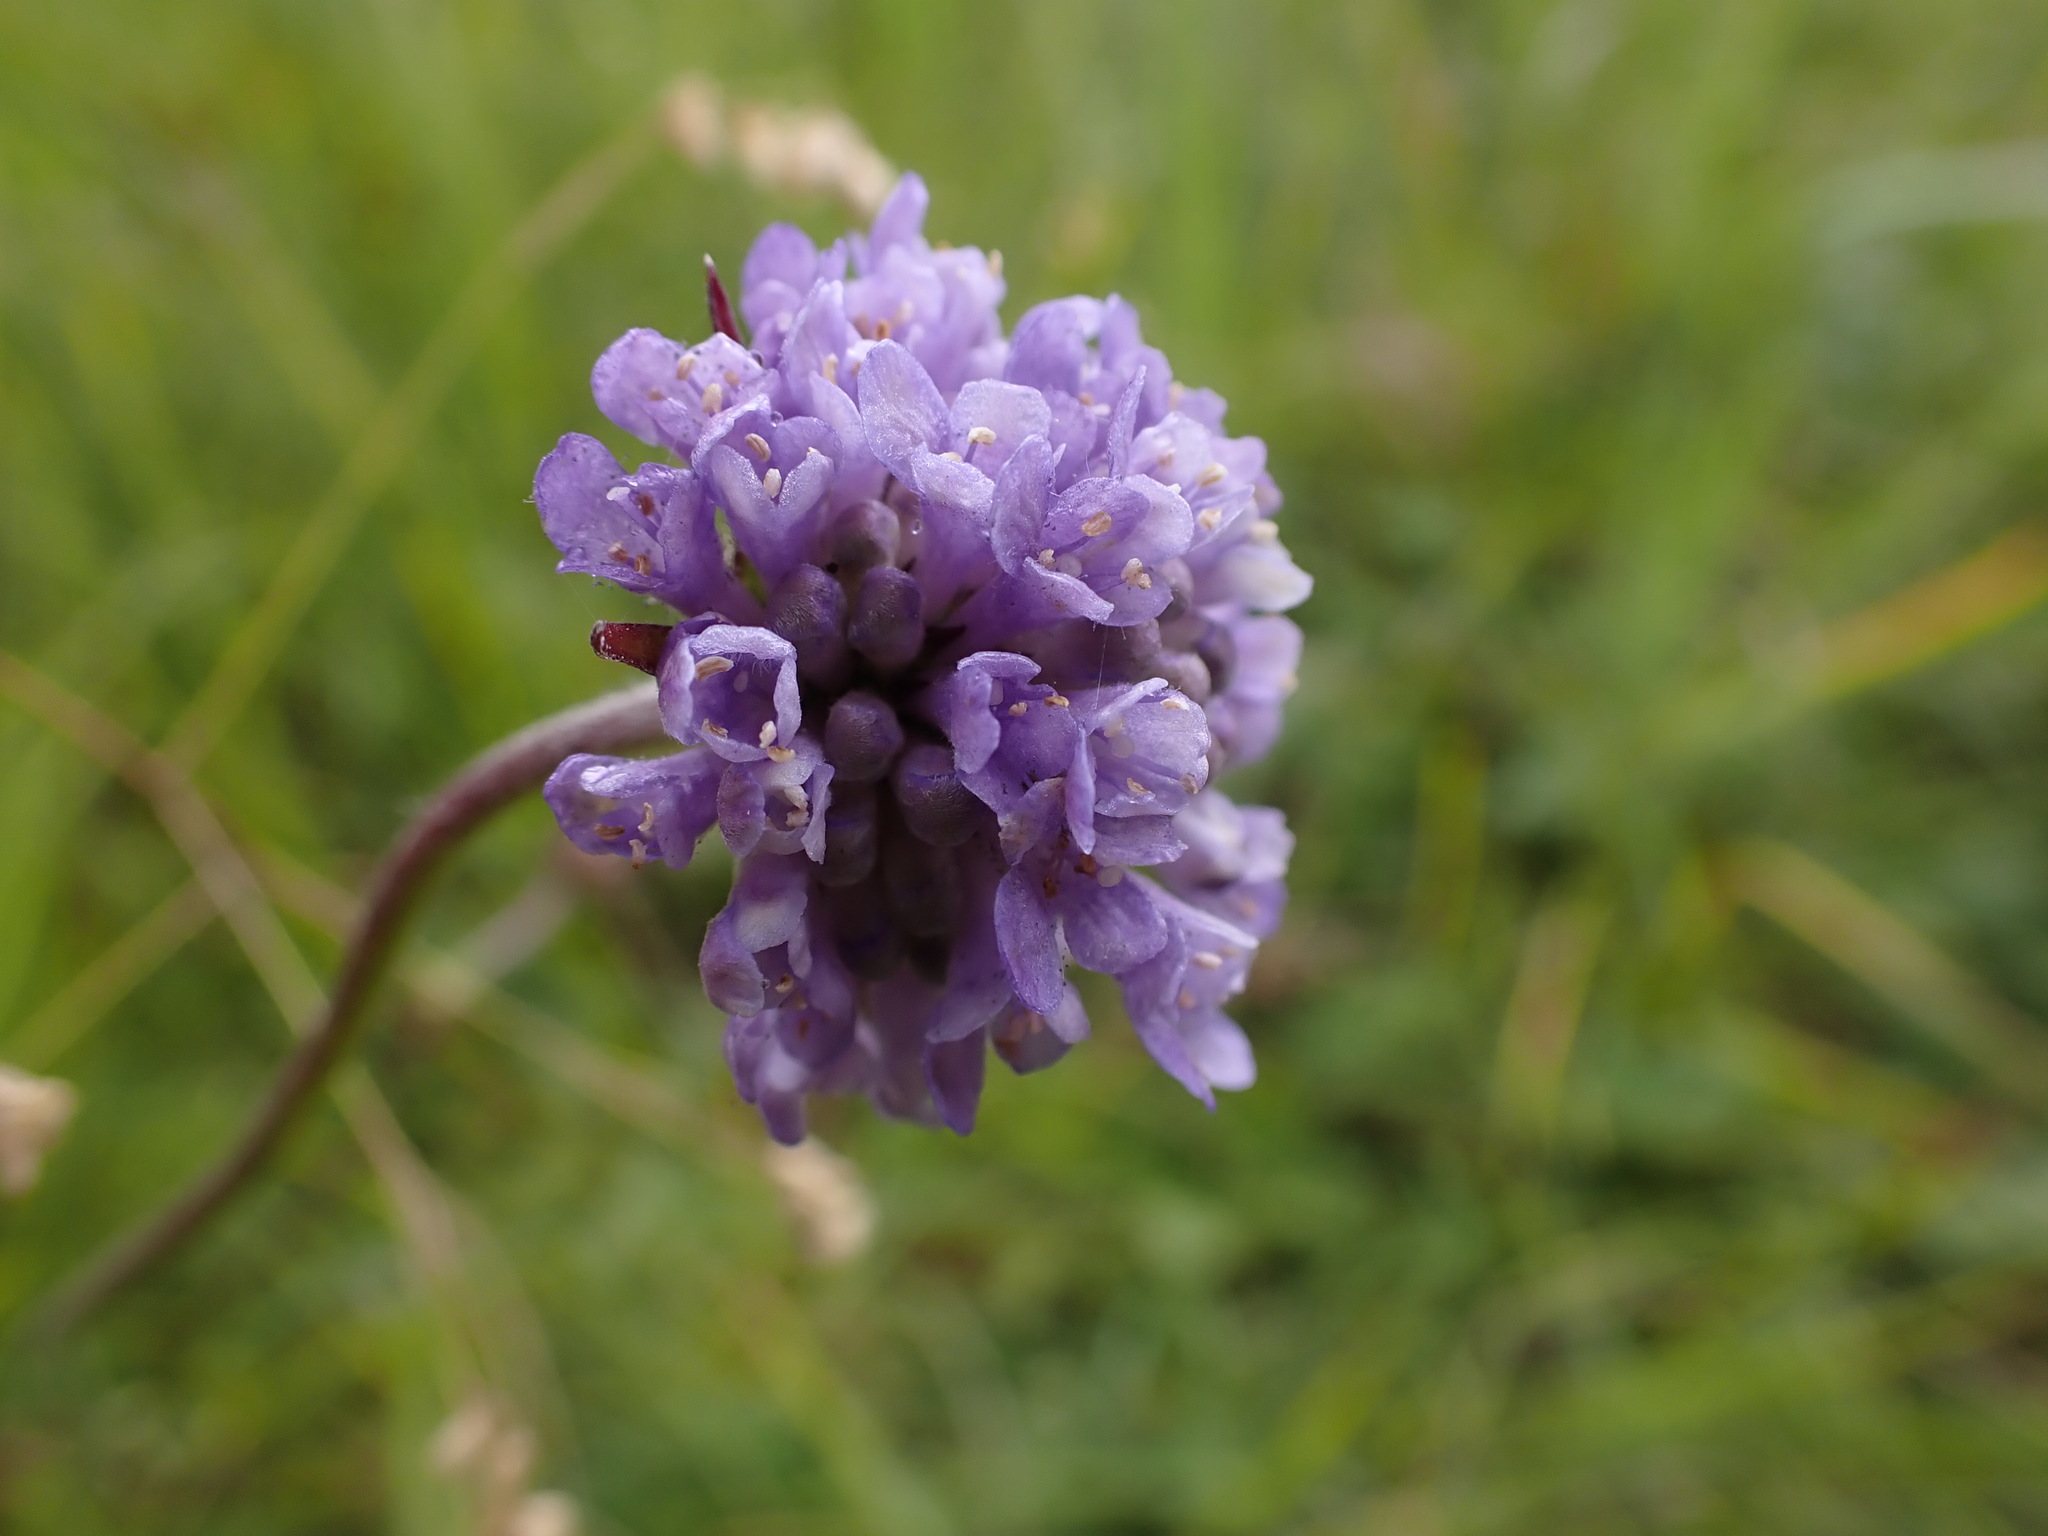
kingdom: Plantae
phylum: Tracheophyta
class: Magnoliopsida
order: Dipsacales
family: Caprifoliaceae
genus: Succisa
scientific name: Succisa pratensis
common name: Devil's-bit
